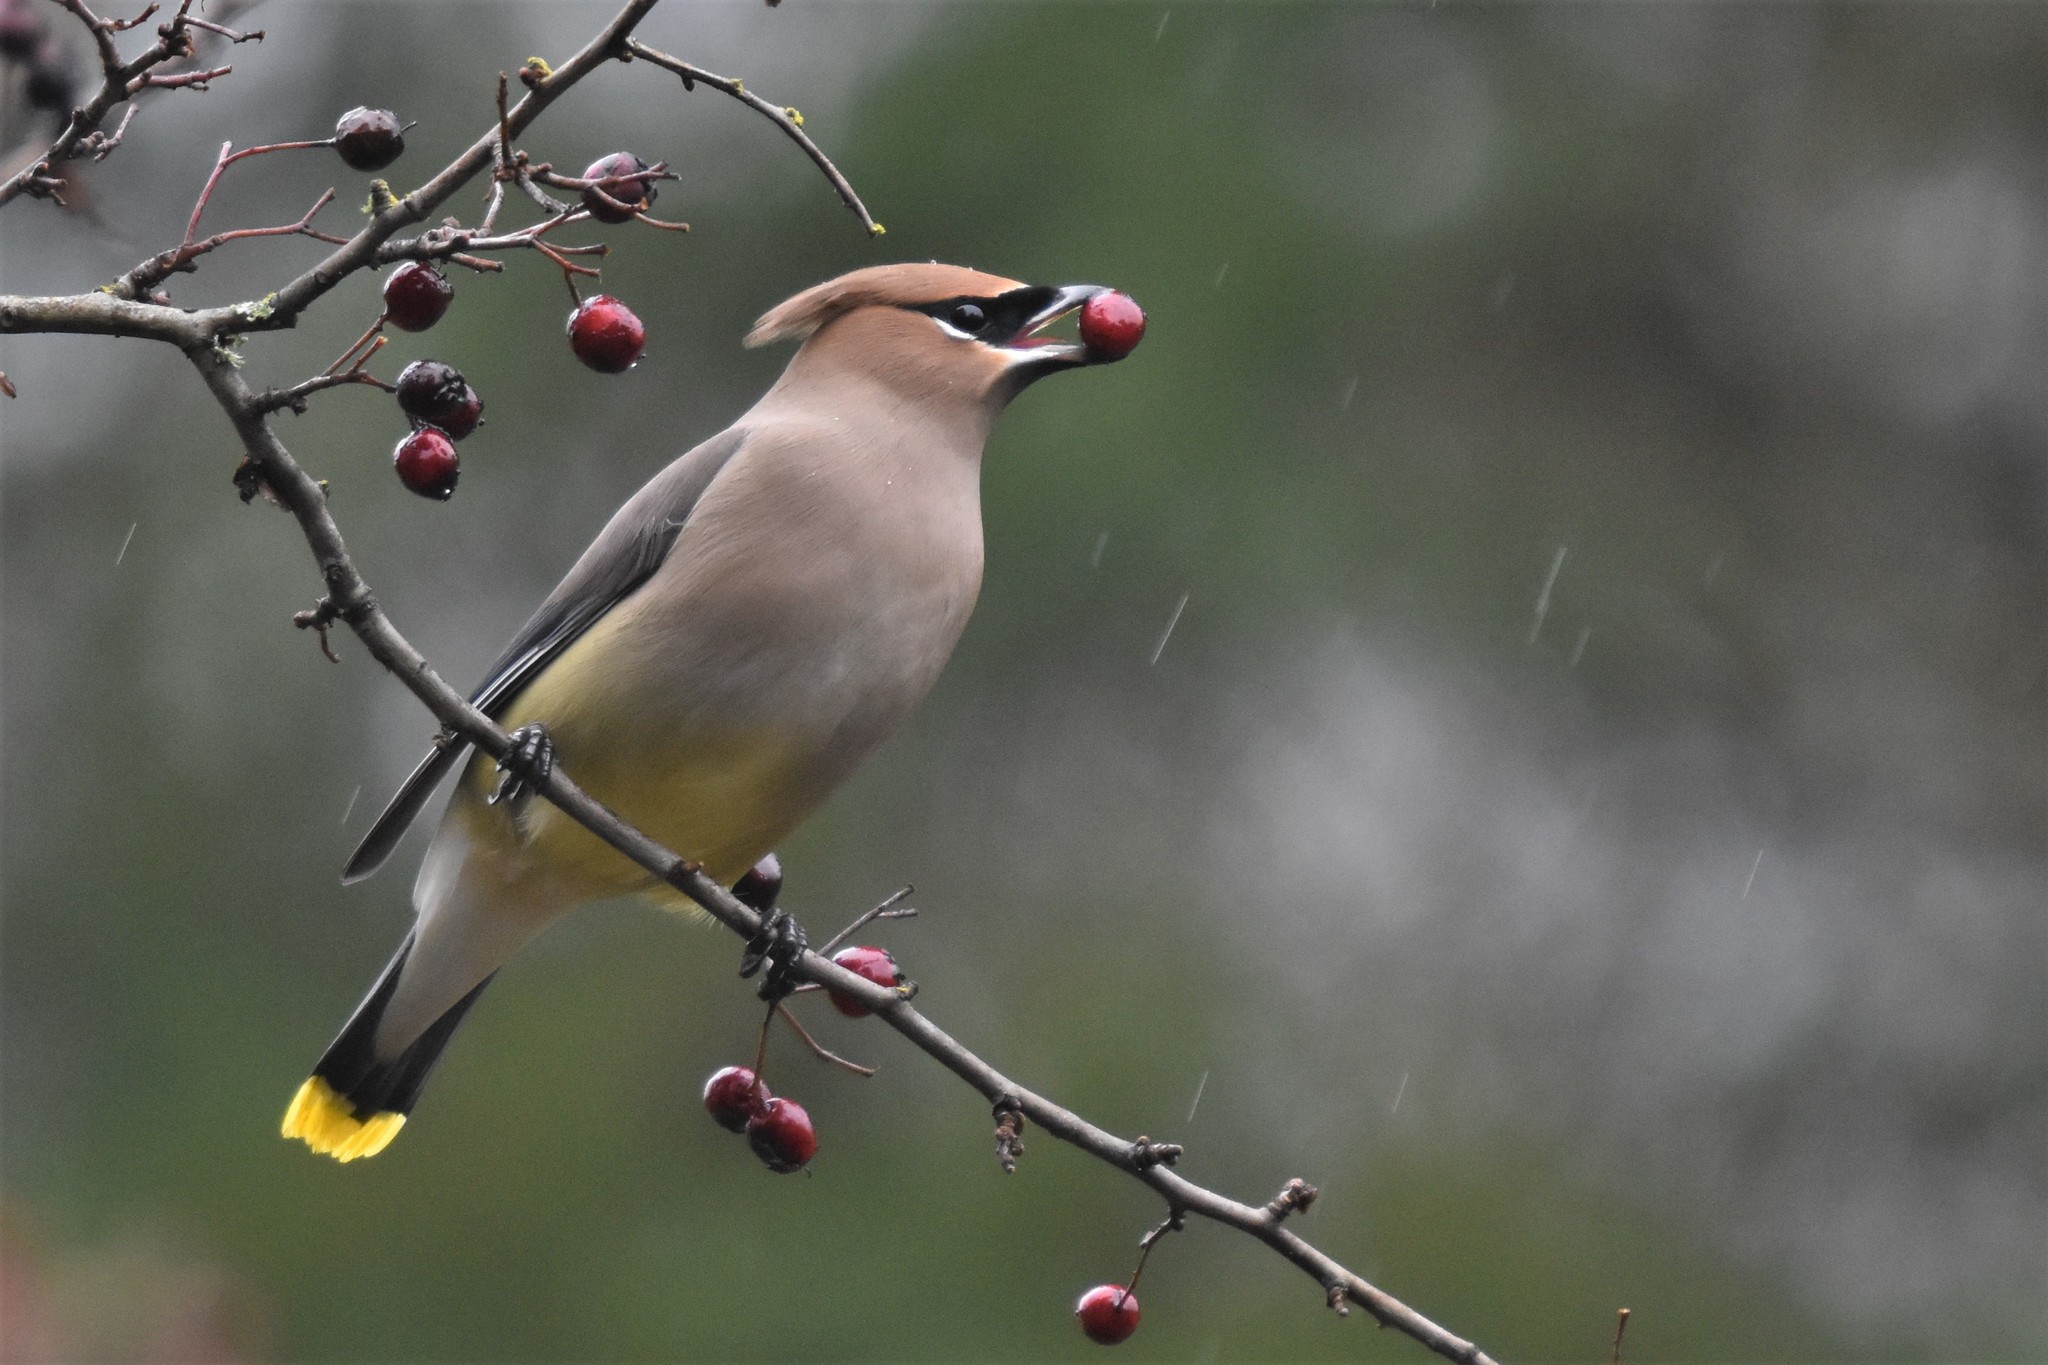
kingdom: Animalia
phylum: Chordata
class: Aves
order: Passeriformes
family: Bombycillidae
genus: Bombycilla
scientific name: Bombycilla cedrorum
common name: Cedar waxwing
